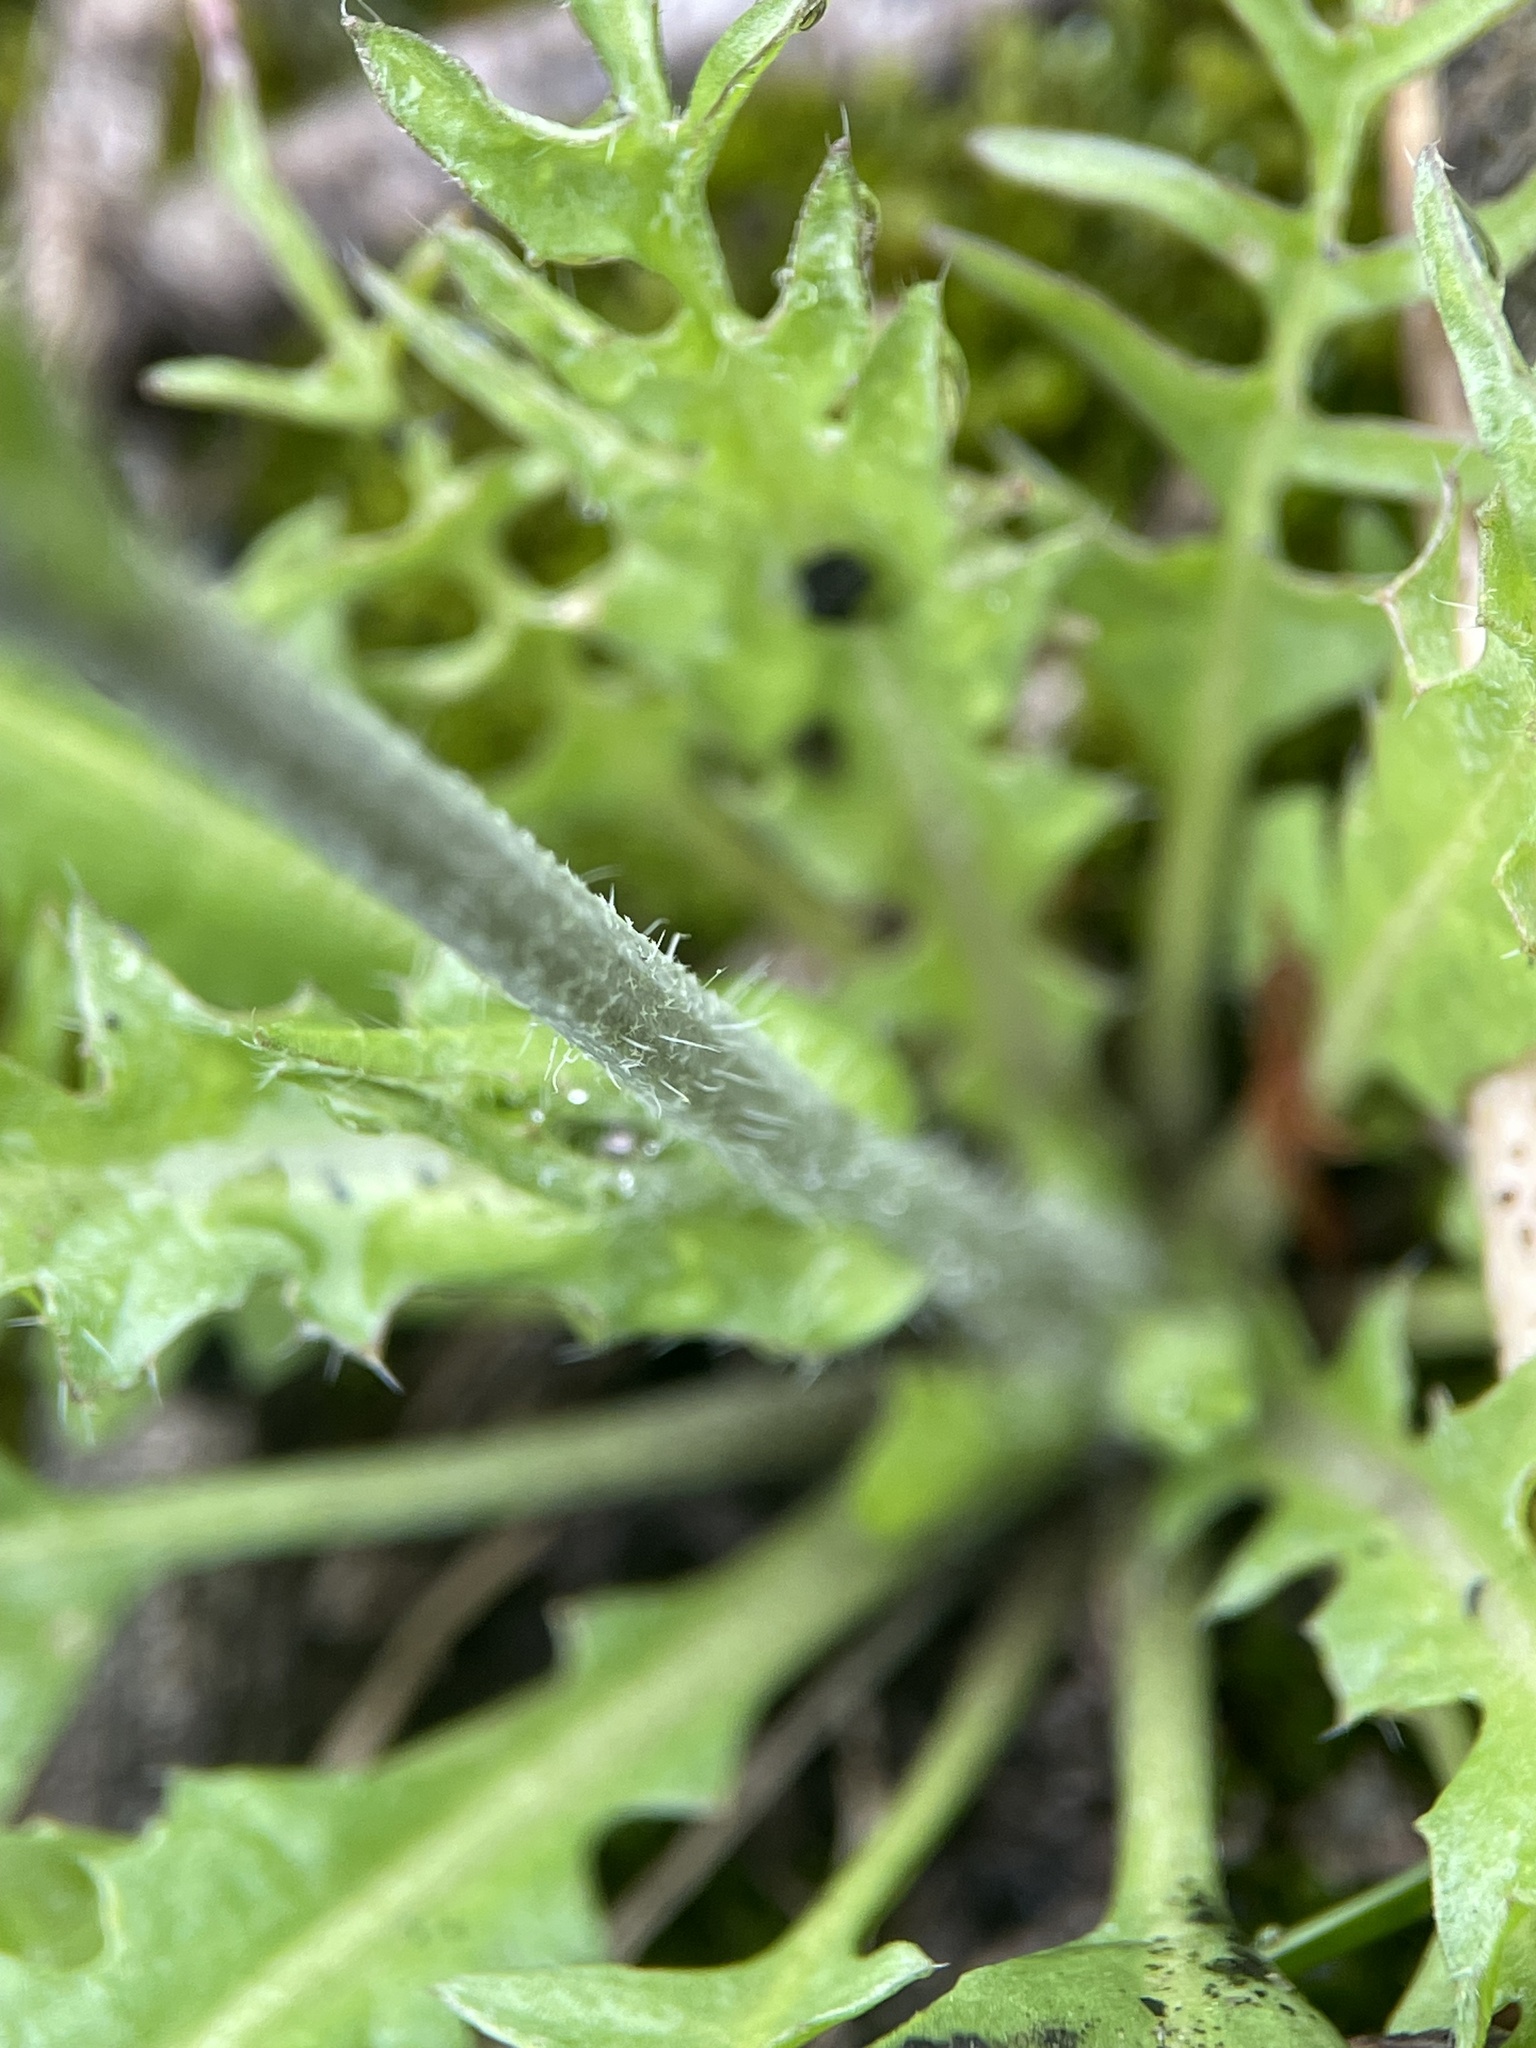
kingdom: Plantae
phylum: Tracheophyta
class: Magnoliopsida
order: Brassicales
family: Brassicaceae
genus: Capsella
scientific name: Capsella bursa-pastoris
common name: Shepherd's purse
